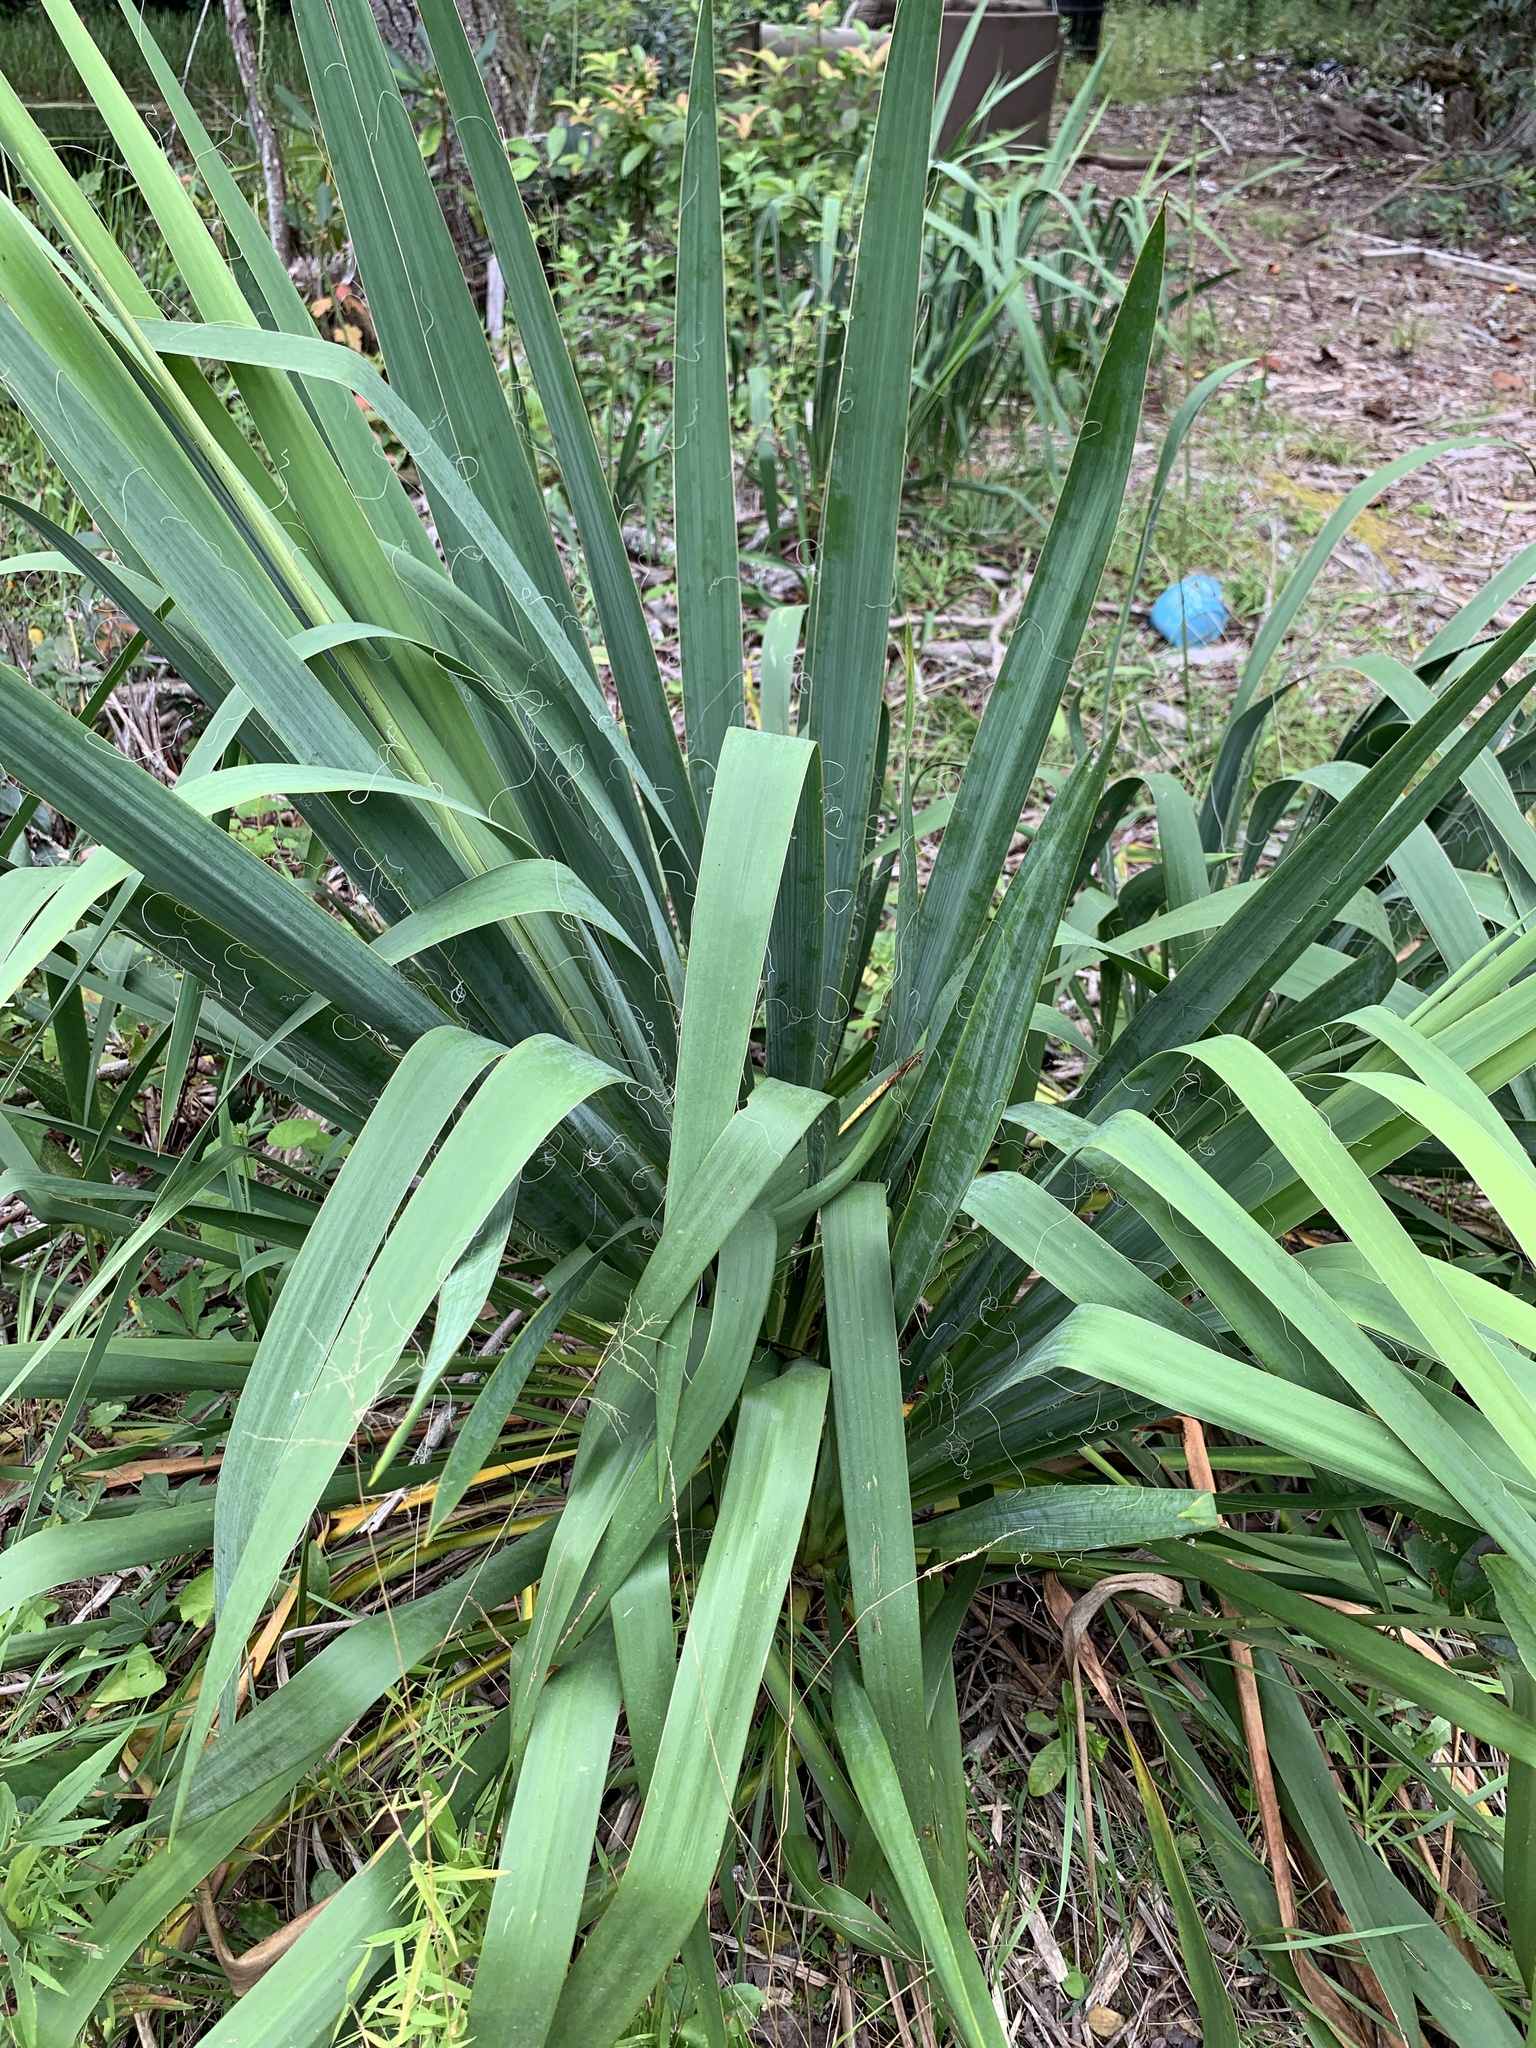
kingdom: Plantae
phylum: Tracheophyta
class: Liliopsida
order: Asparagales
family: Asparagaceae
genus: Yucca
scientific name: Yucca filamentosa
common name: Adam's-needle
